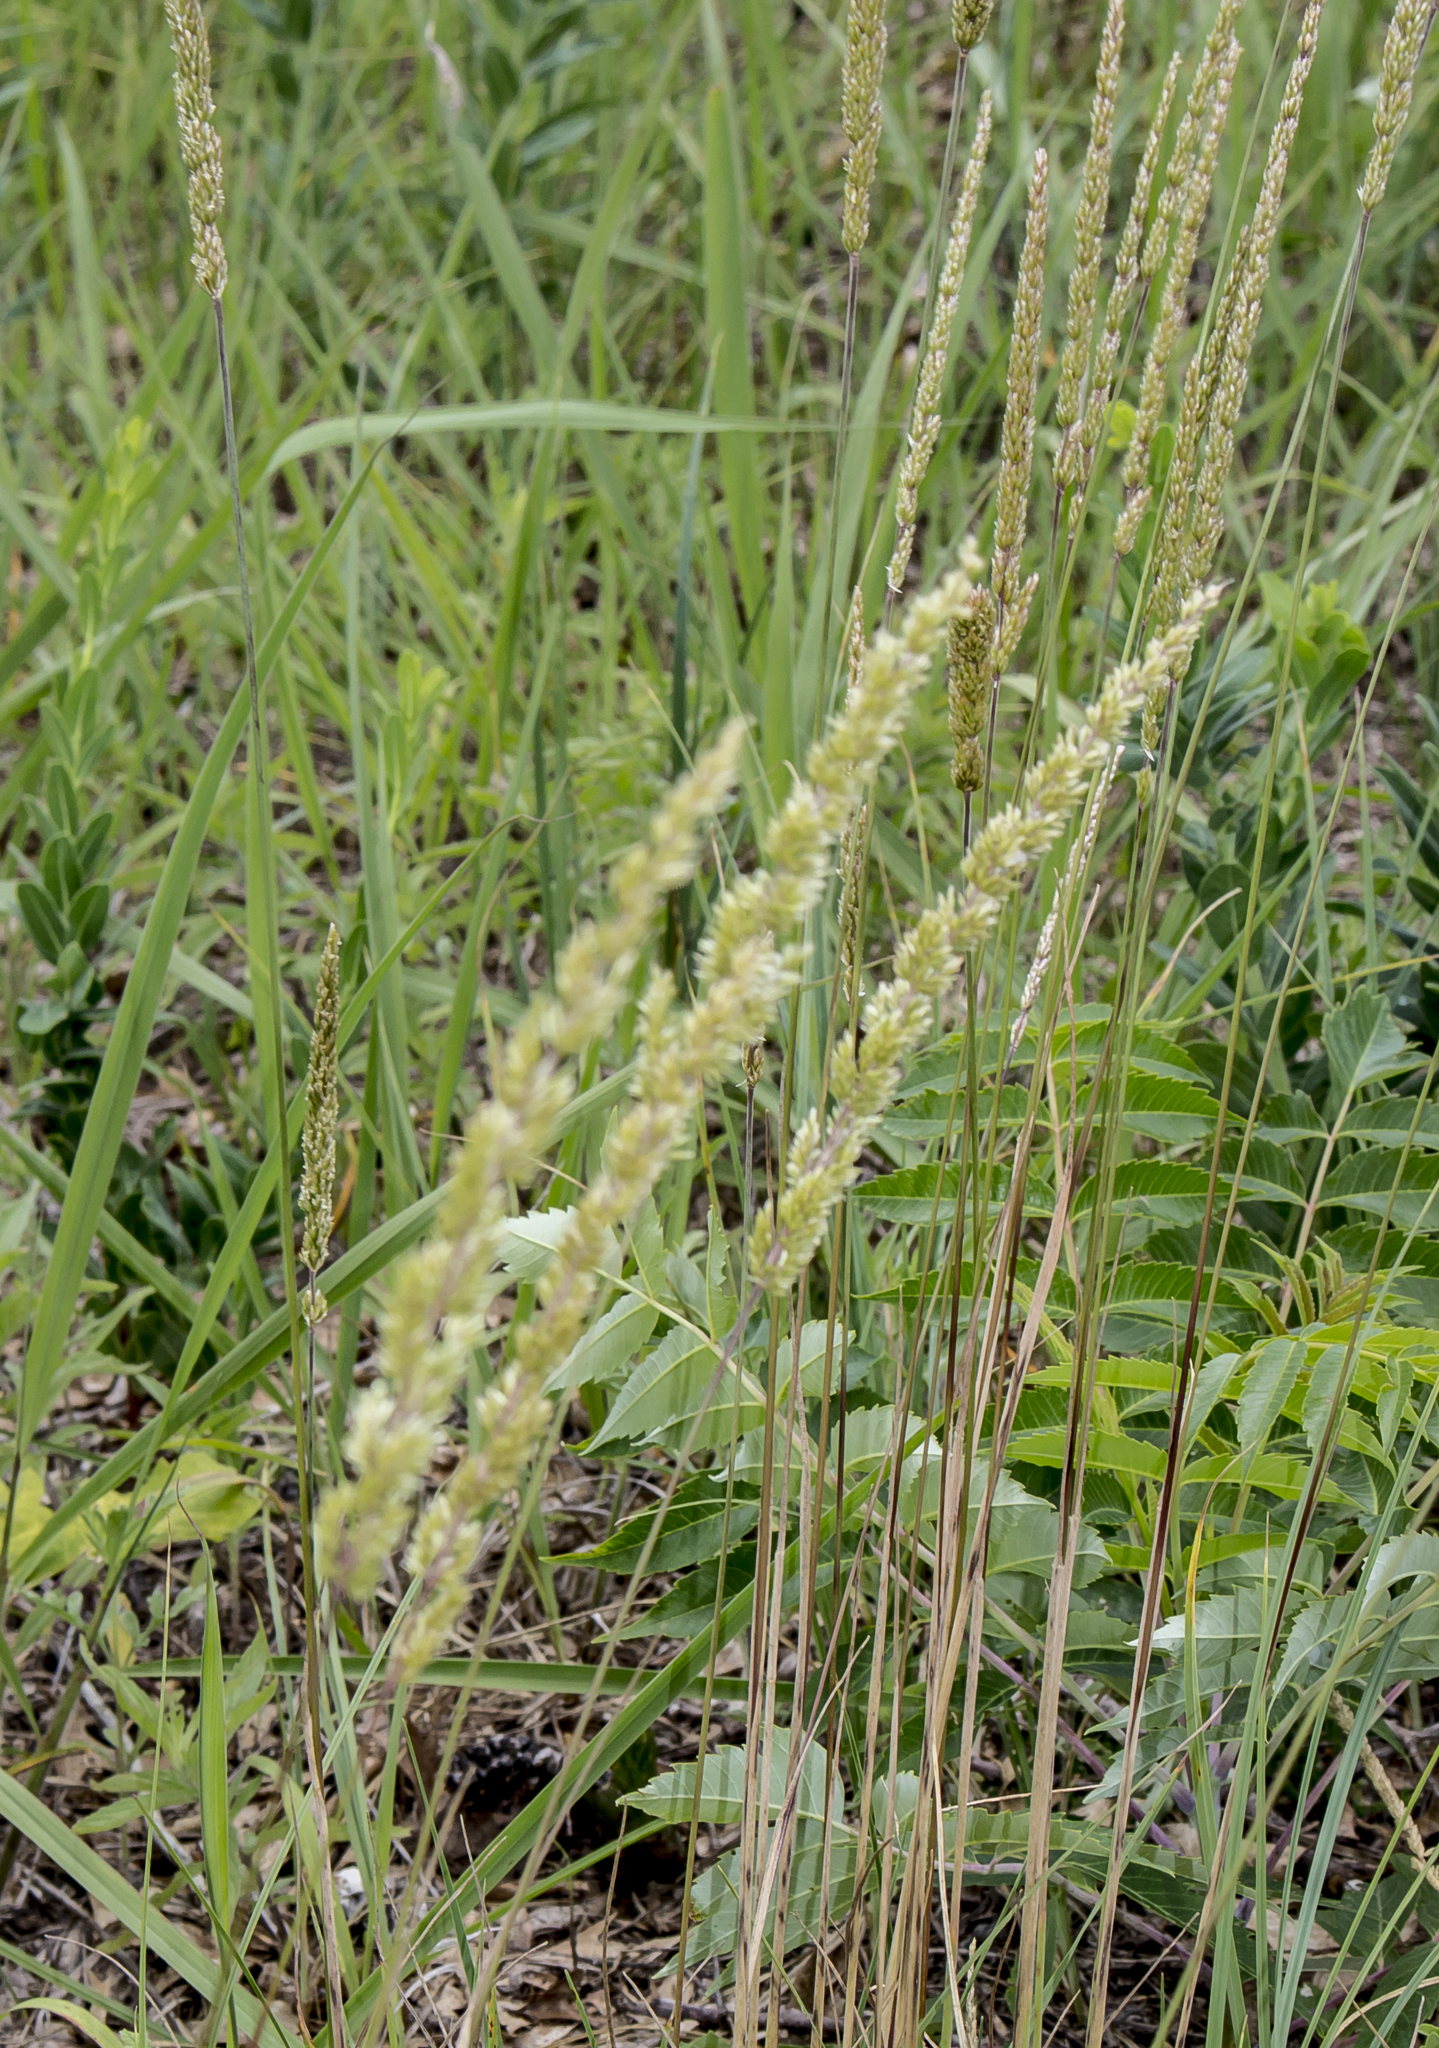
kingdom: Plantae
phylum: Tracheophyta
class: Liliopsida
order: Poales
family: Poaceae
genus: Koeleria
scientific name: Koeleria macrantha
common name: Crested hair-grass
